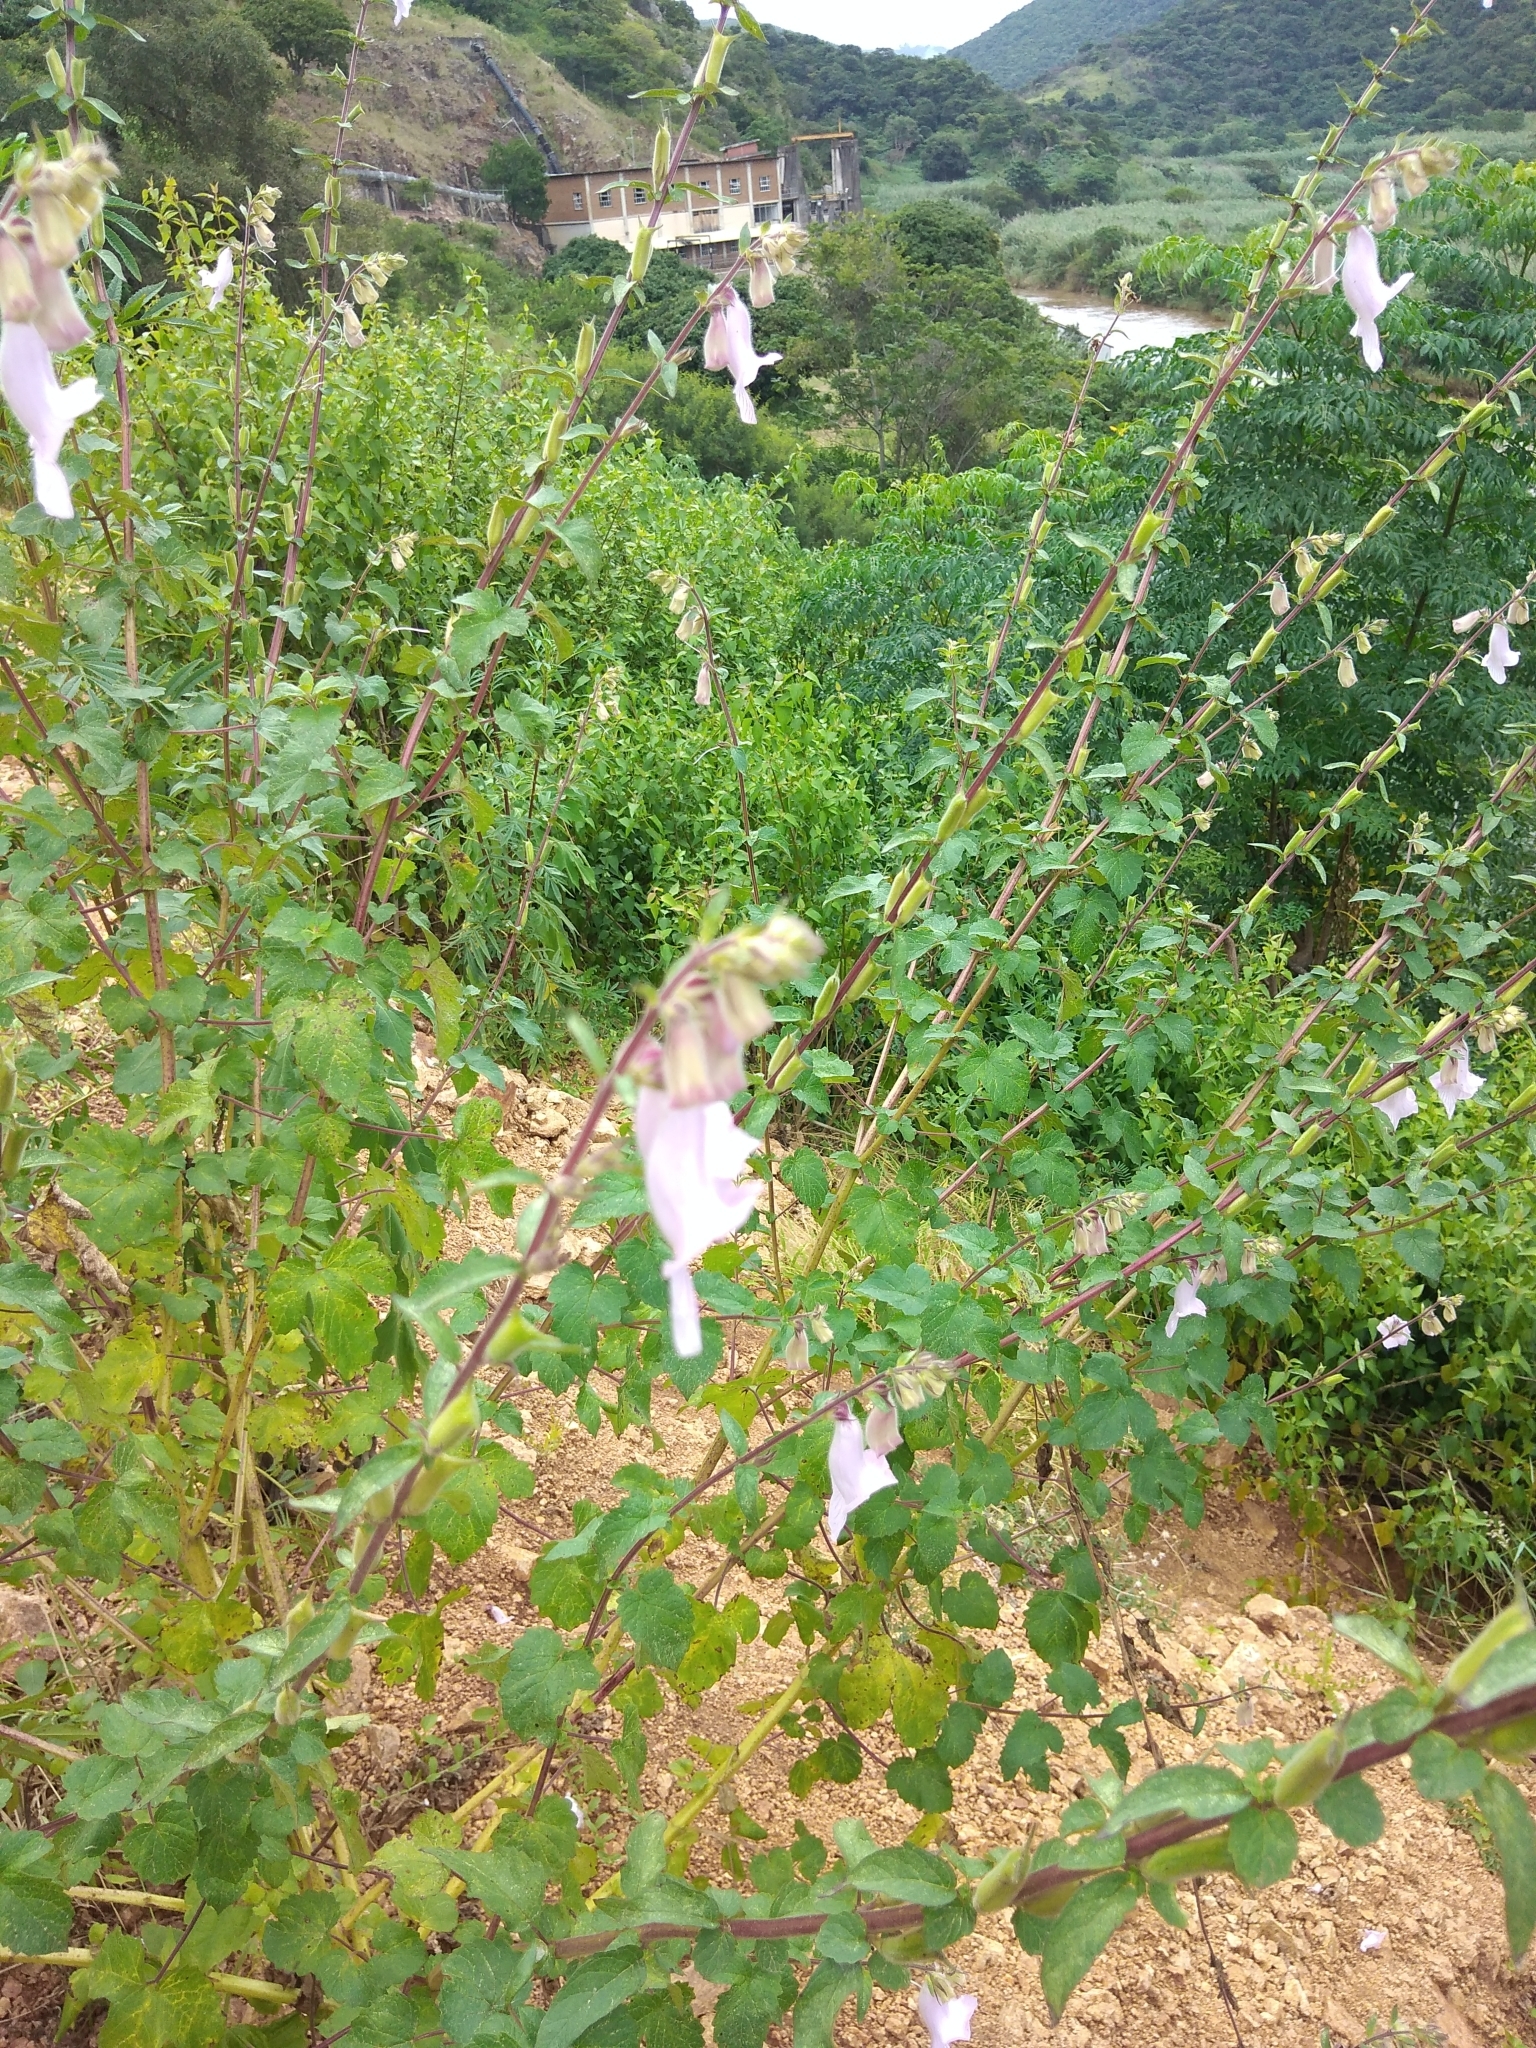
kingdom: Plantae
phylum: Tracheophyta
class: Magnoliopsida
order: Lamiales
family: Pedaliaceae
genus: Sesamum
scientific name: Sesamum trilobum
